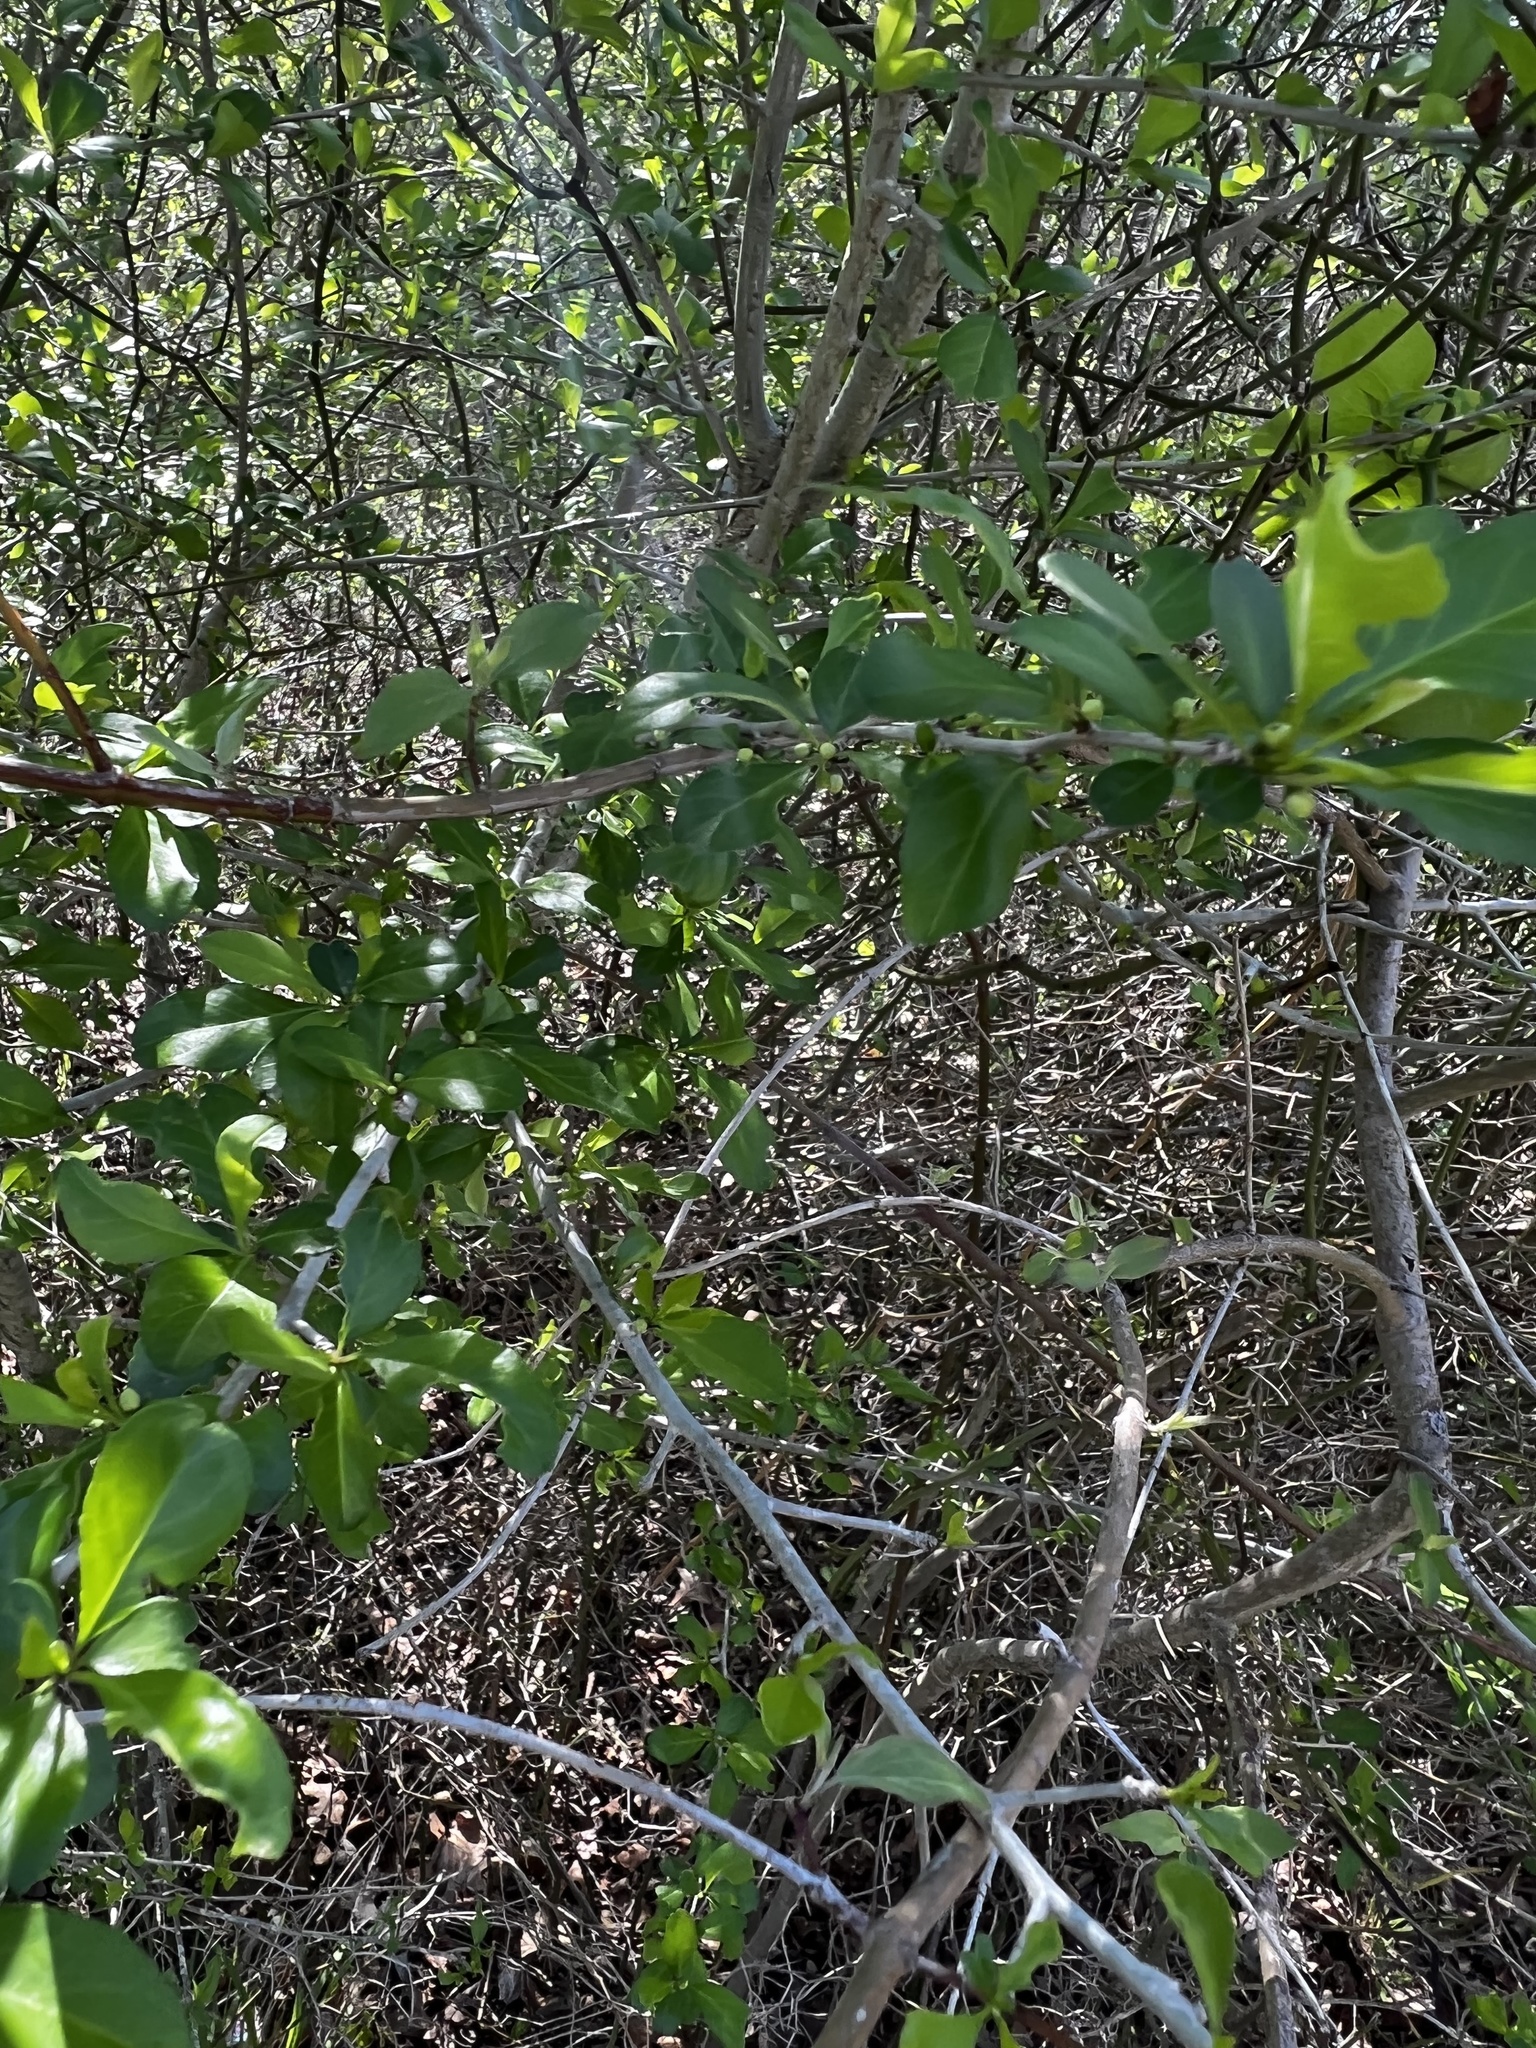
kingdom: Plantae
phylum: Tracheophyta
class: Magnoliopsida
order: Aquifoliales
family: Aquifoliaceae
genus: Ilex
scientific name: Ilex decidua
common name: Possum-haw
